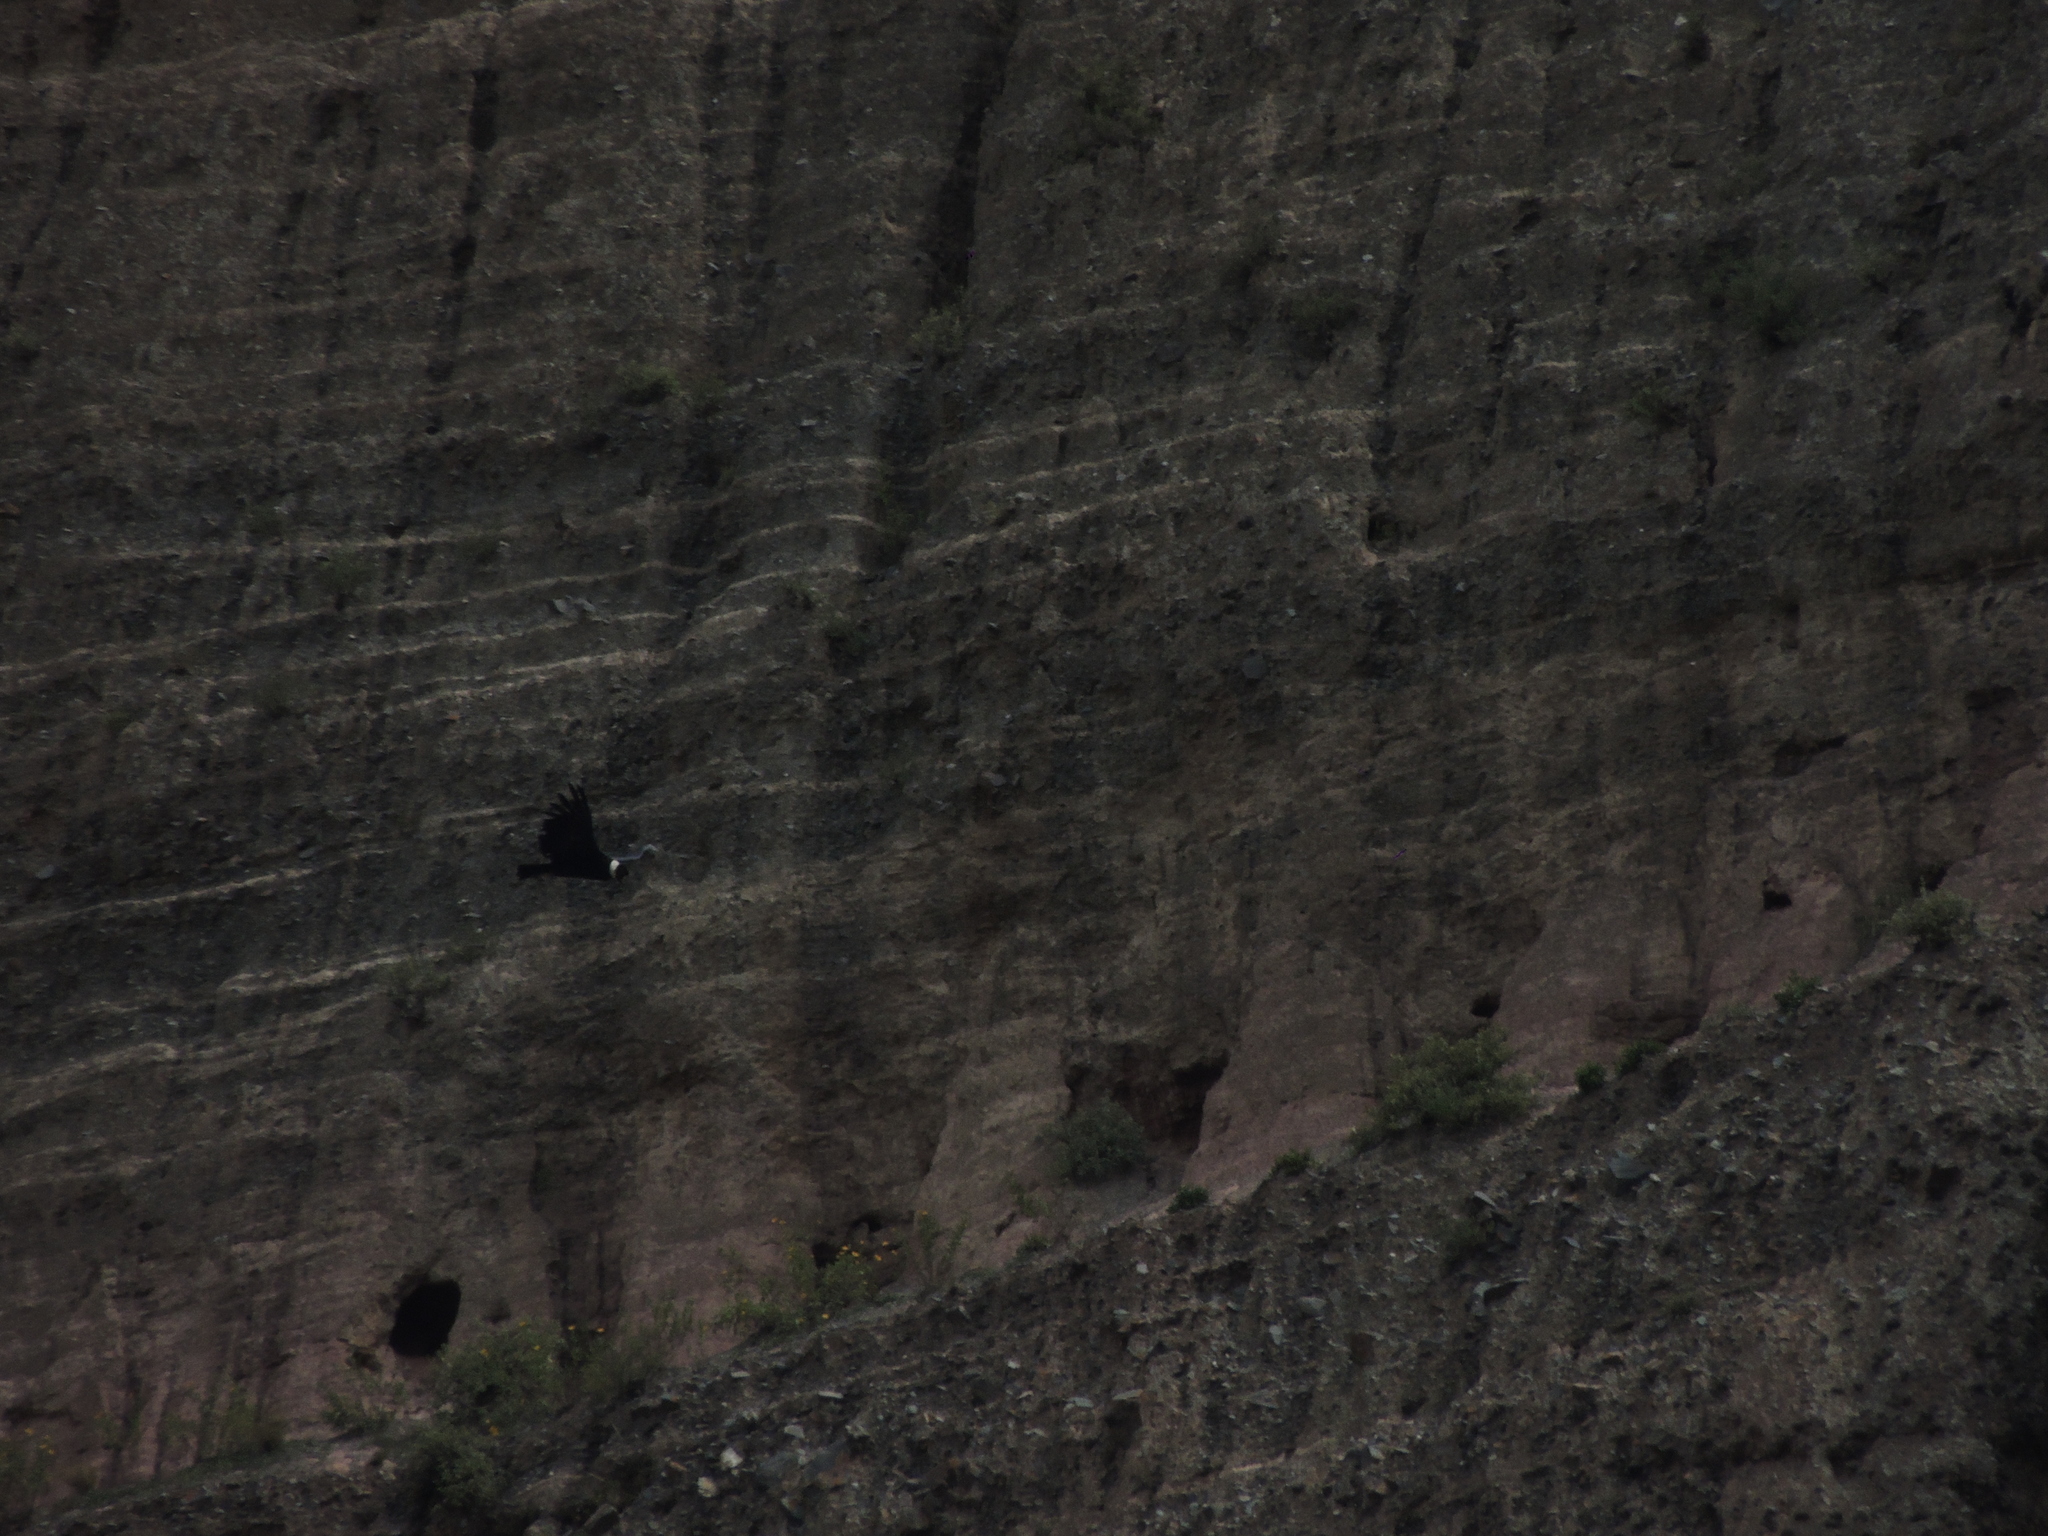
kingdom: Animalia
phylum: Chordata
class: Aves
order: Accipitriformes
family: Cathartidae
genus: Vultur
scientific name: Vultur gryphus
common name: Andean condor
